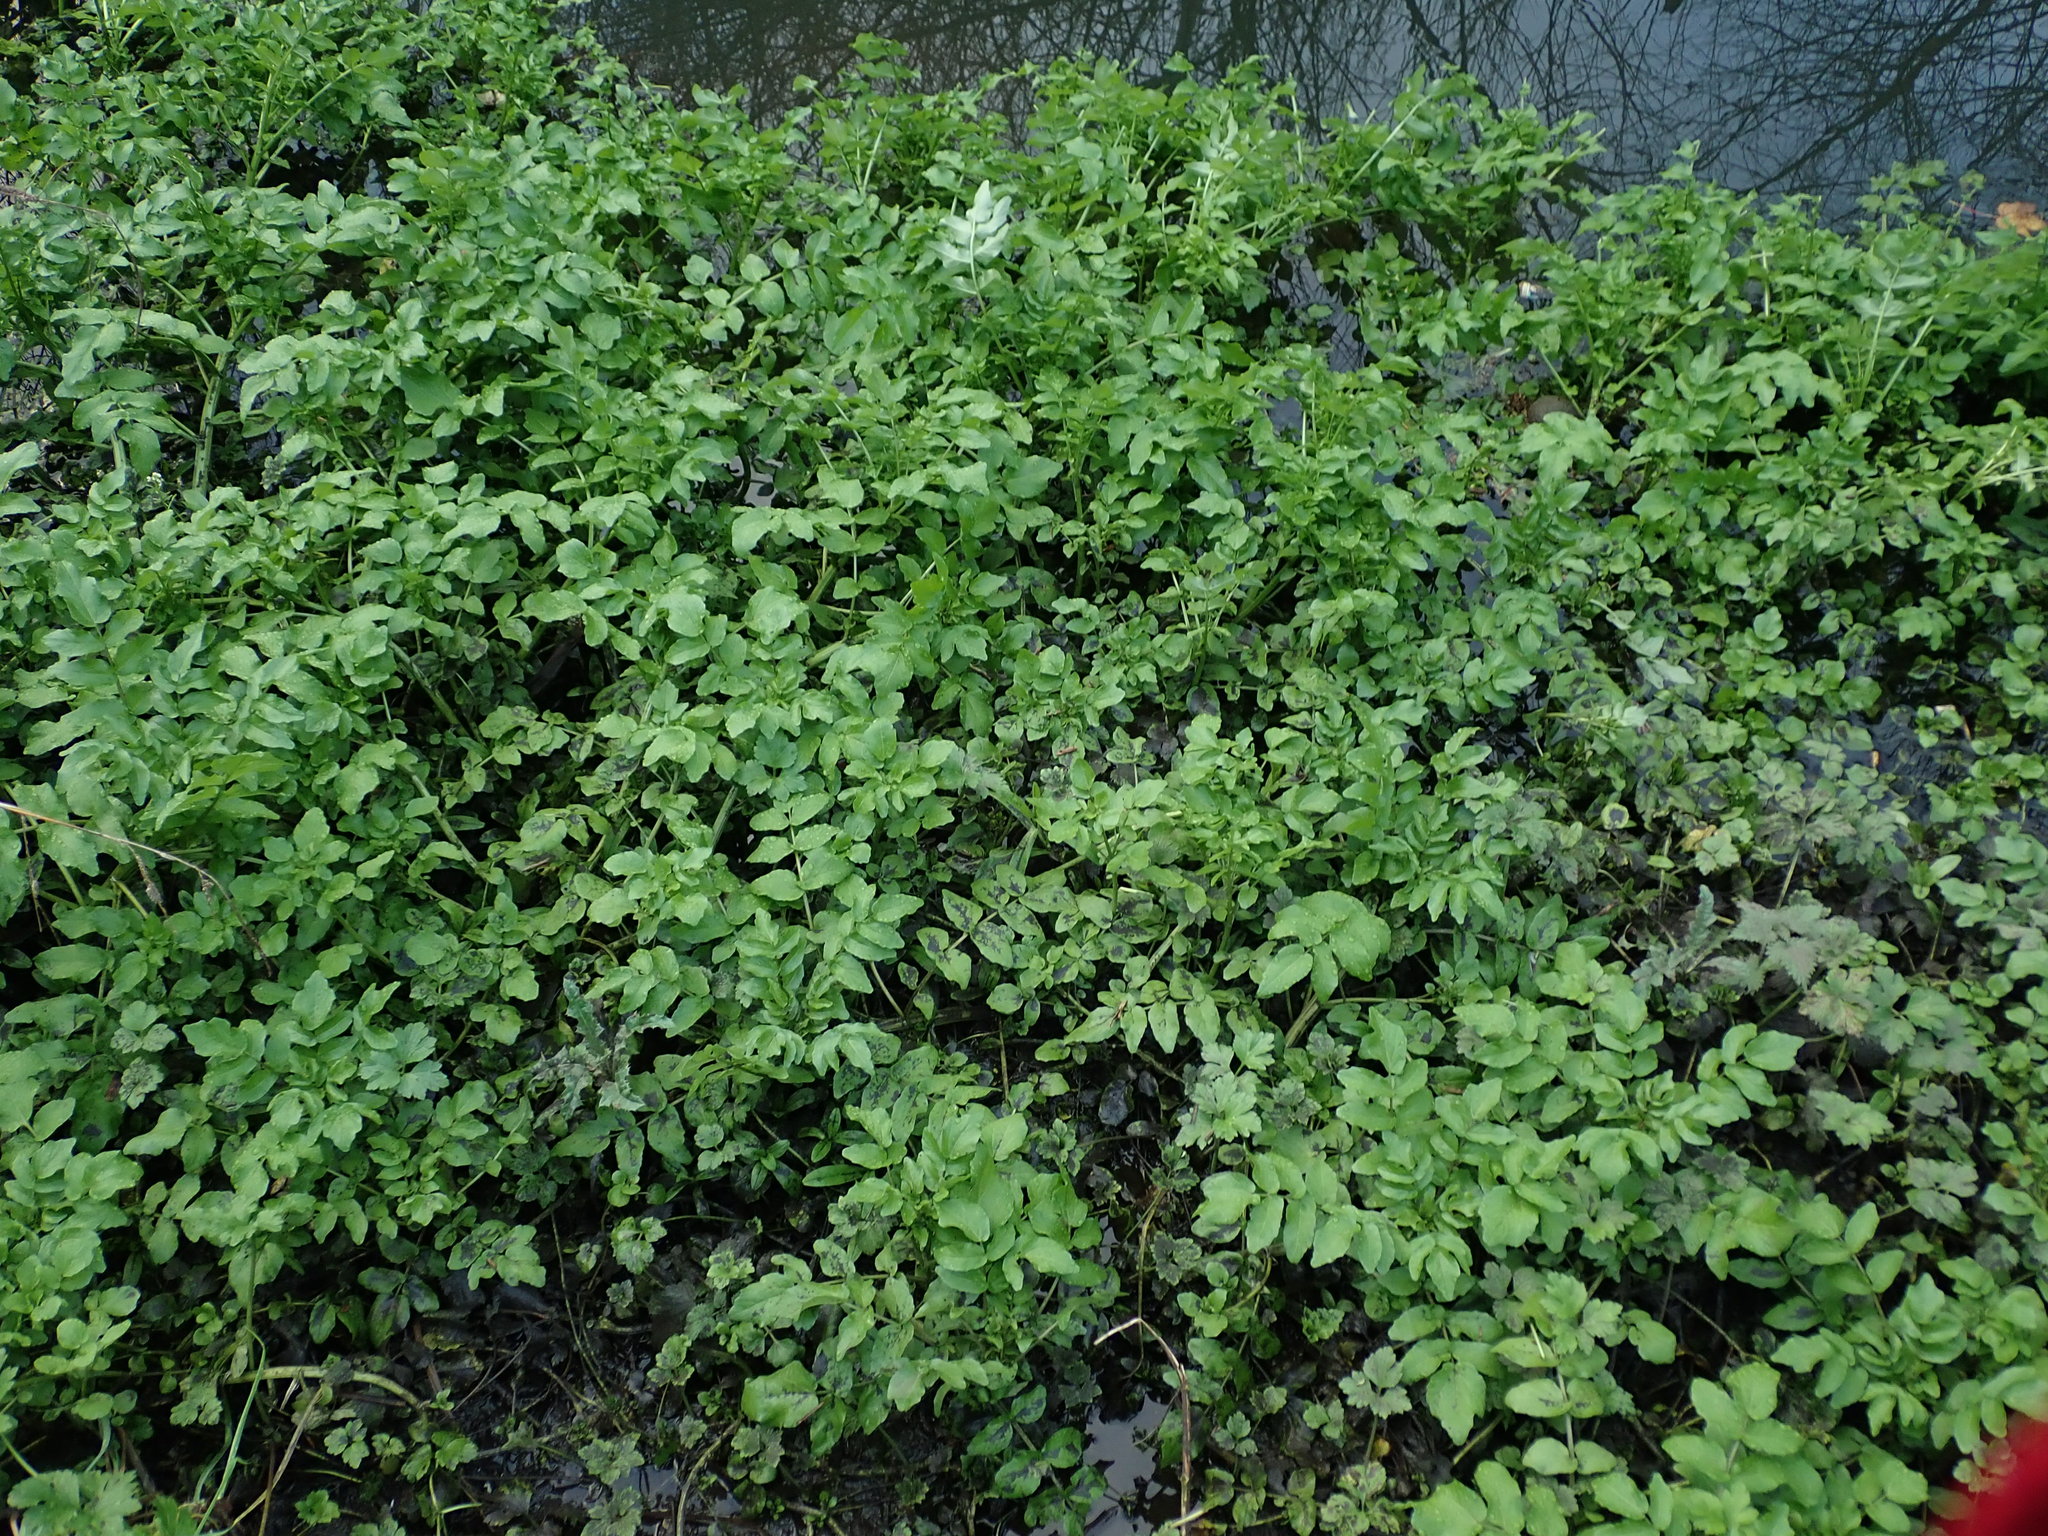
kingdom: Plantae
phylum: Tracheophyta
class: Magnoliopsida
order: Apiales
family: Apiaceae
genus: Helosciadium
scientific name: Helosciadium nodiflorum
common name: Fool's-watercress
